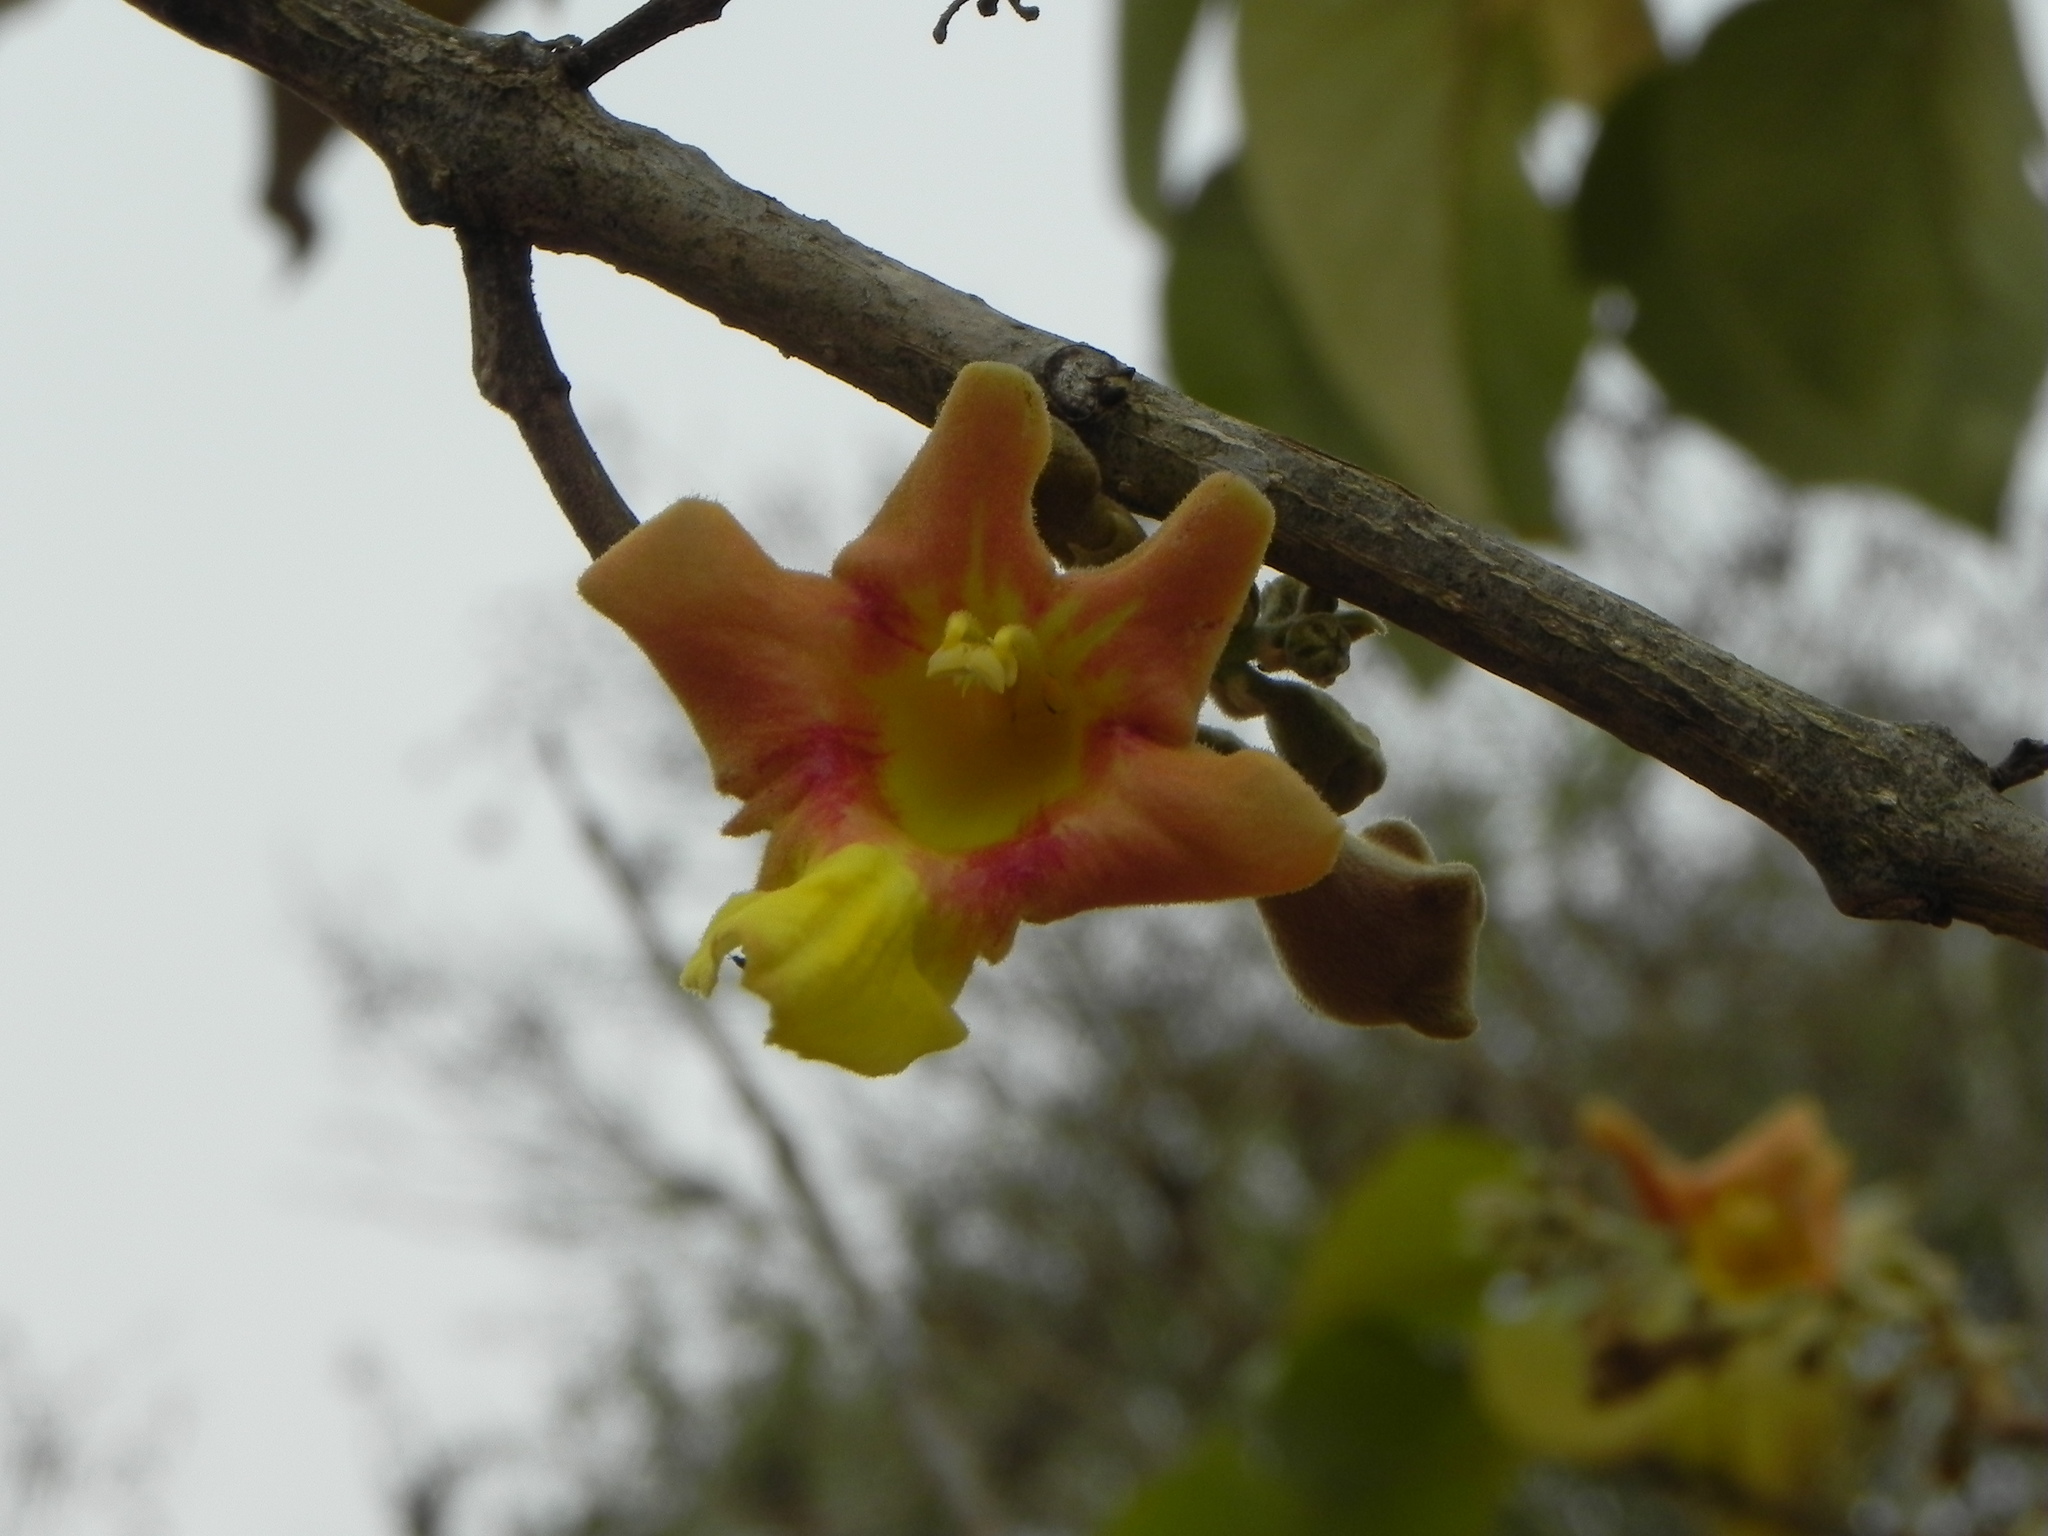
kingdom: Plantae
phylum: Tracheophyta
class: Magnoliopsida
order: Lamiales
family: Lamiaceae
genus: Gmelina
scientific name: Gmelina arborea
